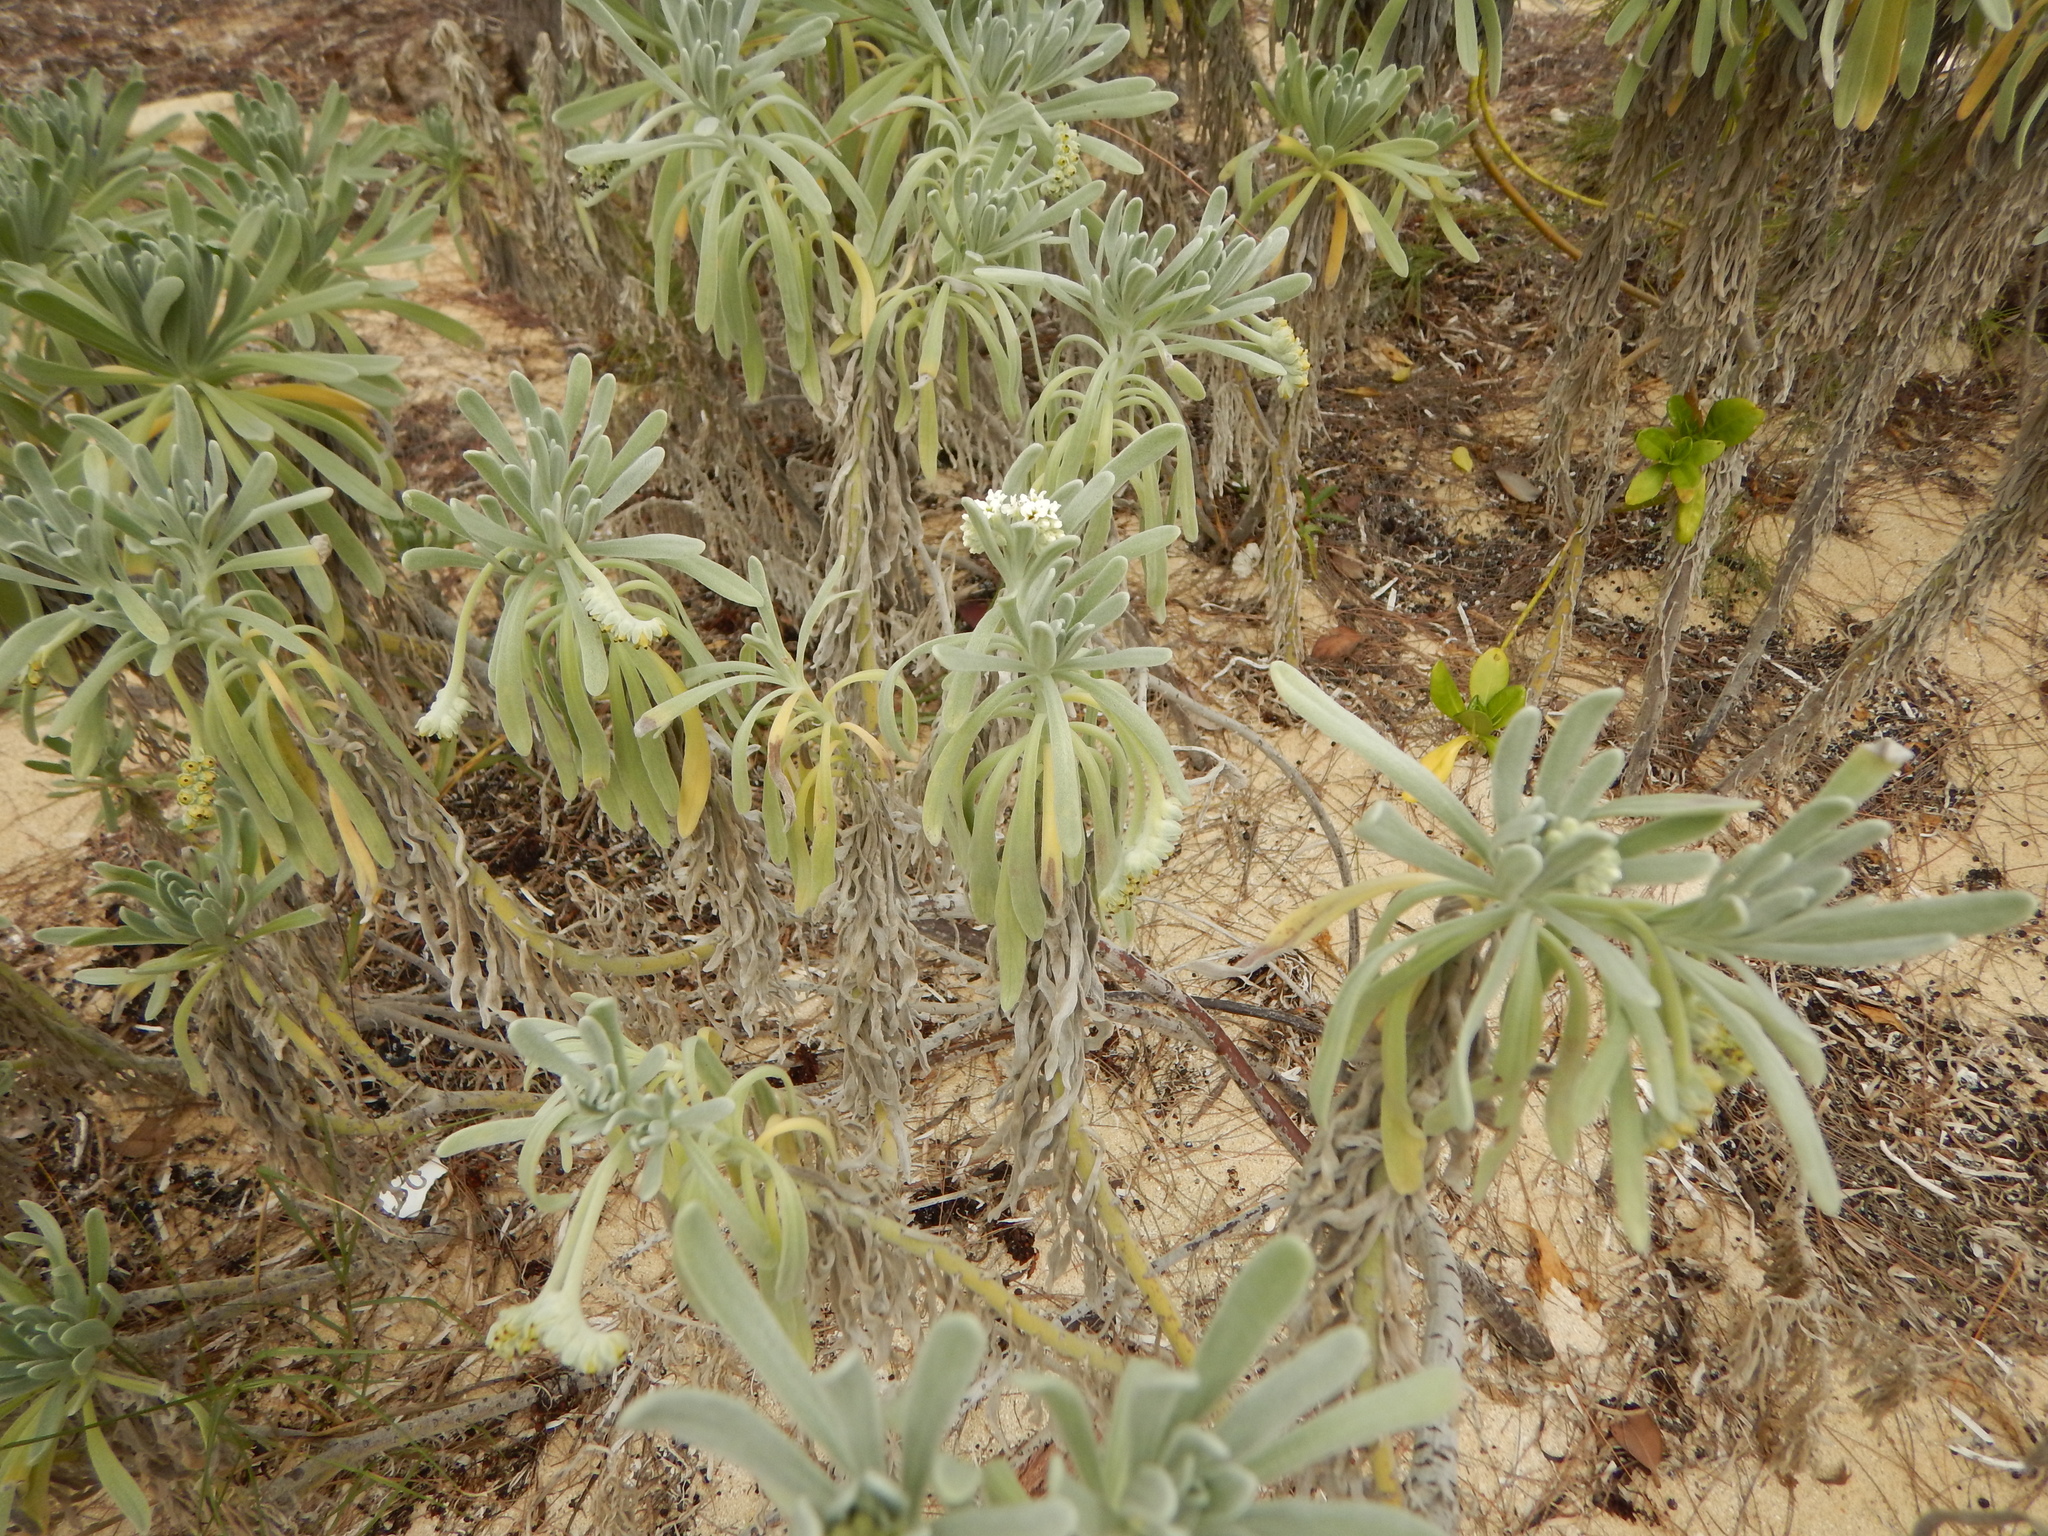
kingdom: Plantae
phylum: Tracheophyta
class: Magnoliopsida
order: Boraginales
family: Heliotropiaceae
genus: Tournefortia
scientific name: Tournefortia gnaphalodes
